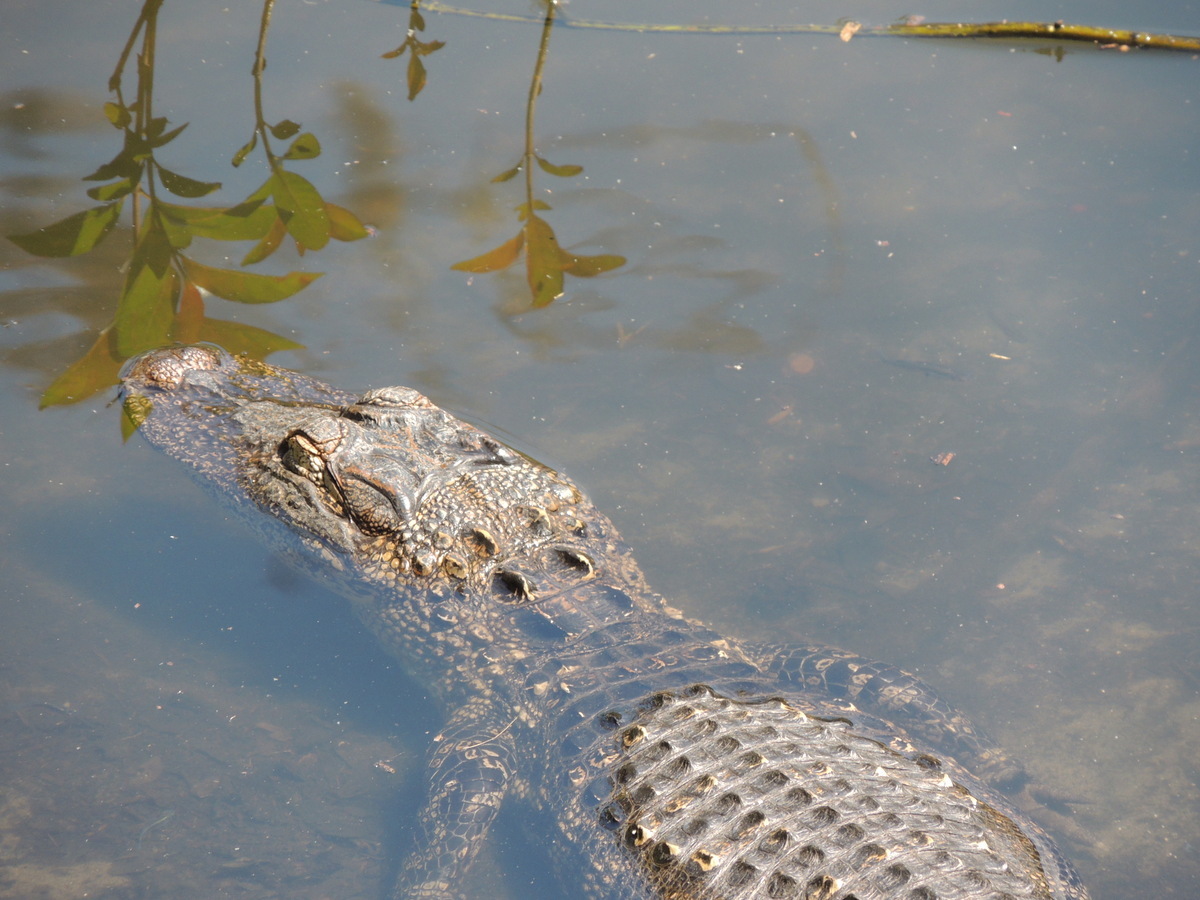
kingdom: Animalia
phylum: Chordata
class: Crocodylia
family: Alligatoridae
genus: Alligator
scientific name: Alligator mississippiensis
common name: American alligator
